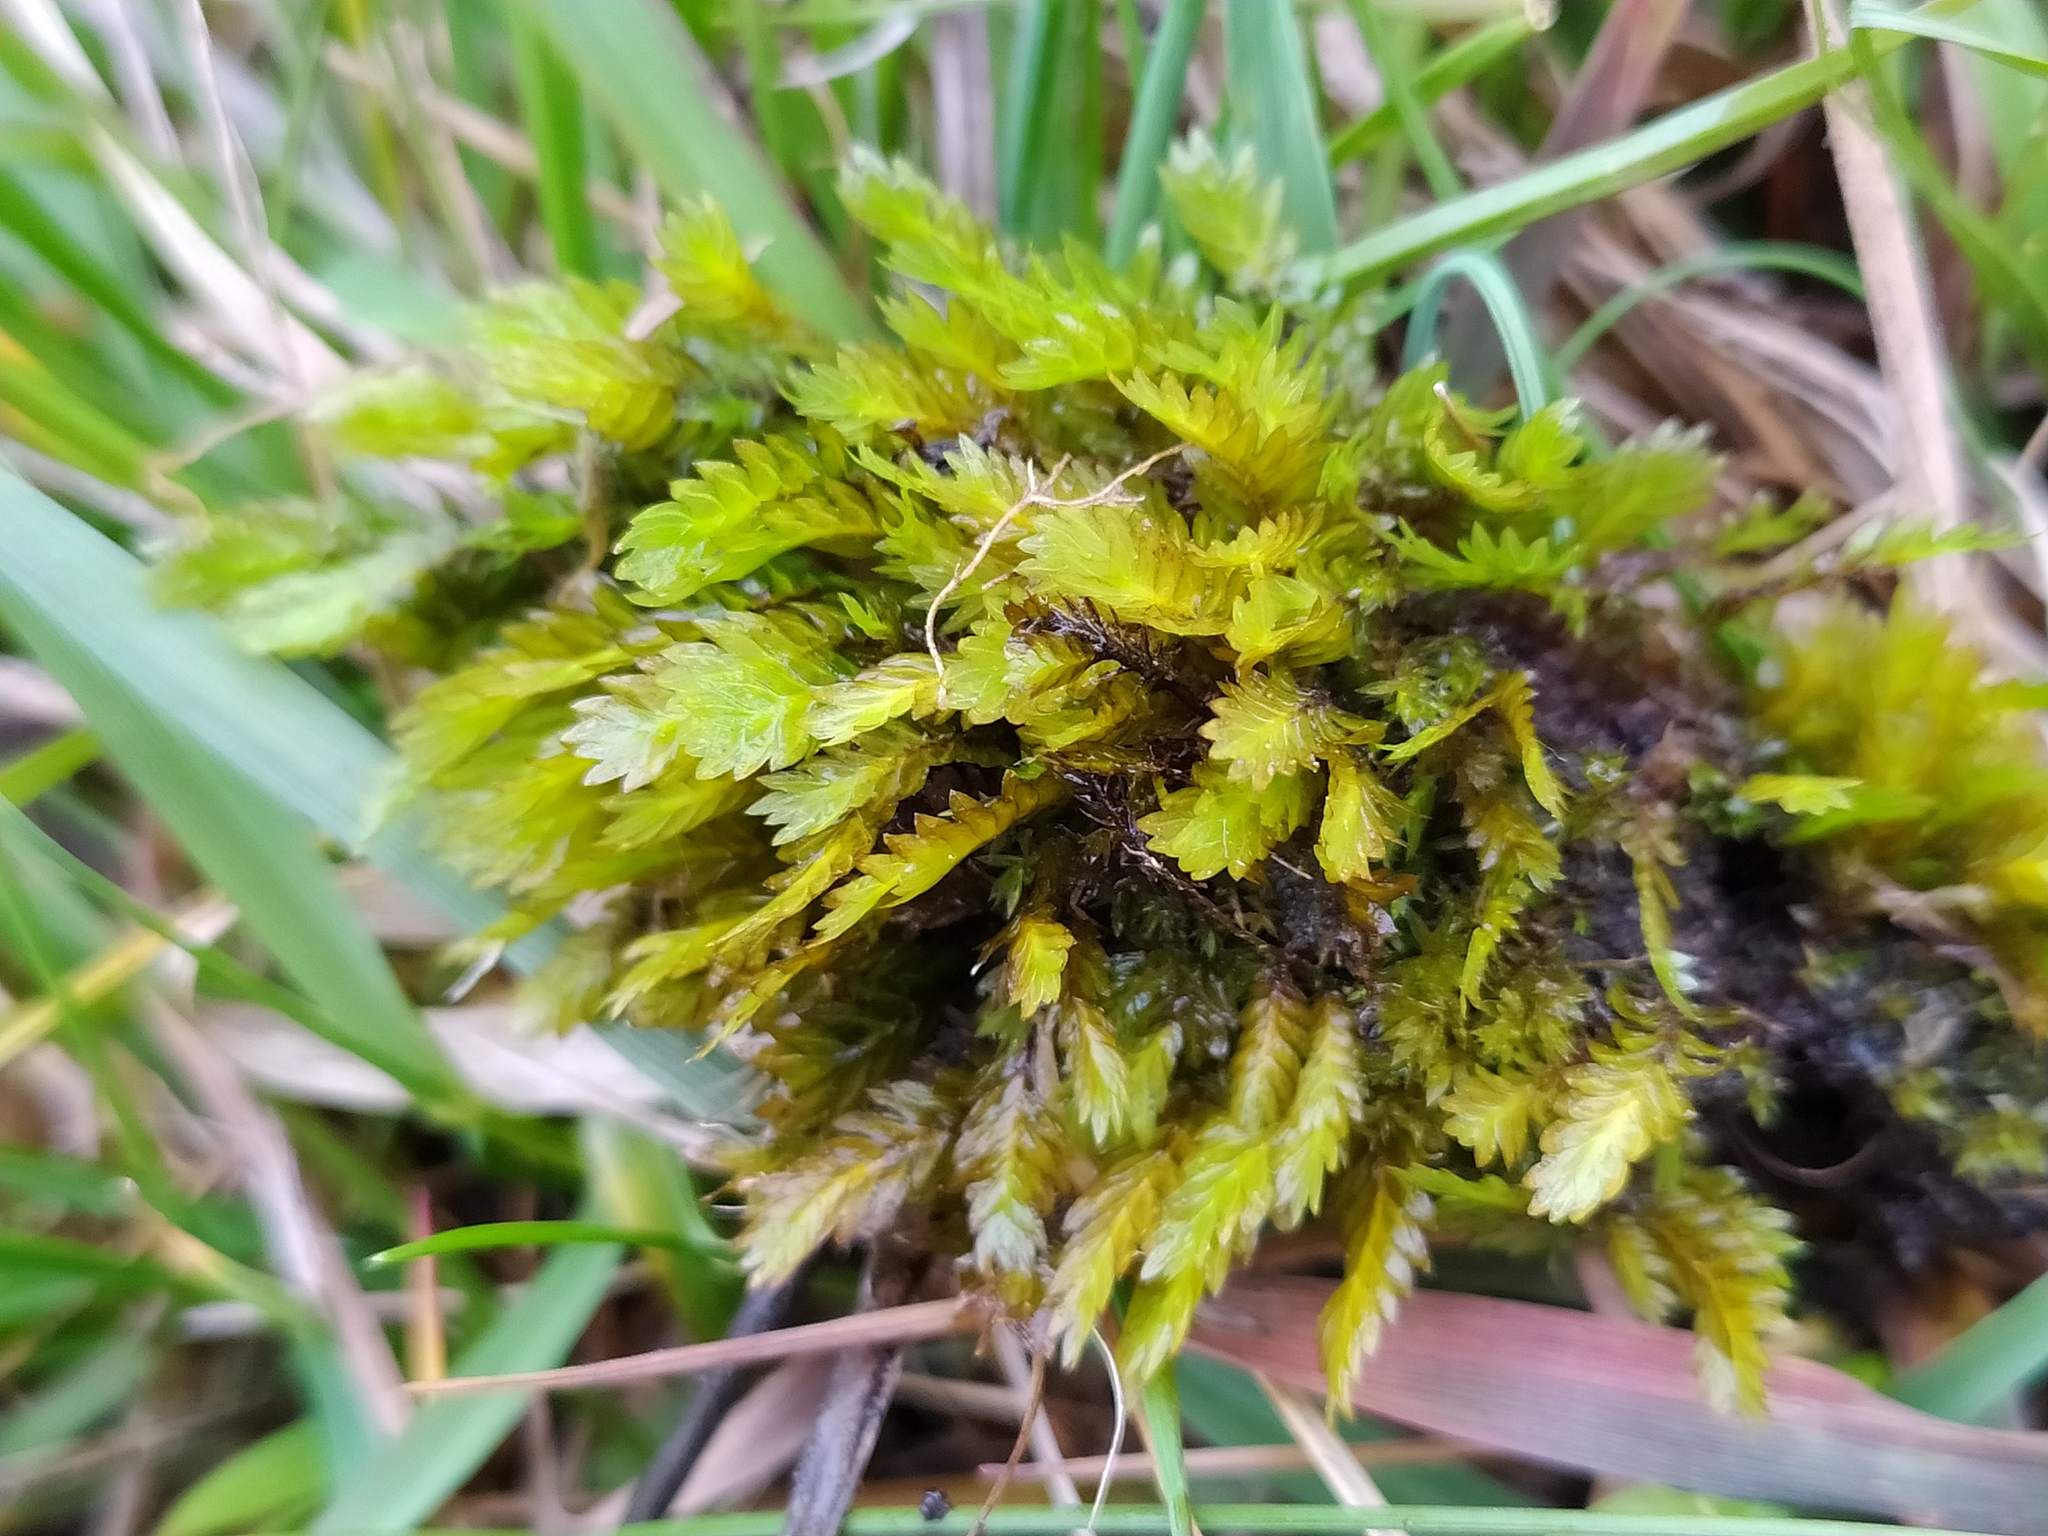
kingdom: Plantae
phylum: Bryophyta
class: Bryopsida
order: Dicranales
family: Fissidentaceae
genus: Fissidens
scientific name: Fissidens adianthoides
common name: Maidenhair pocket moss
